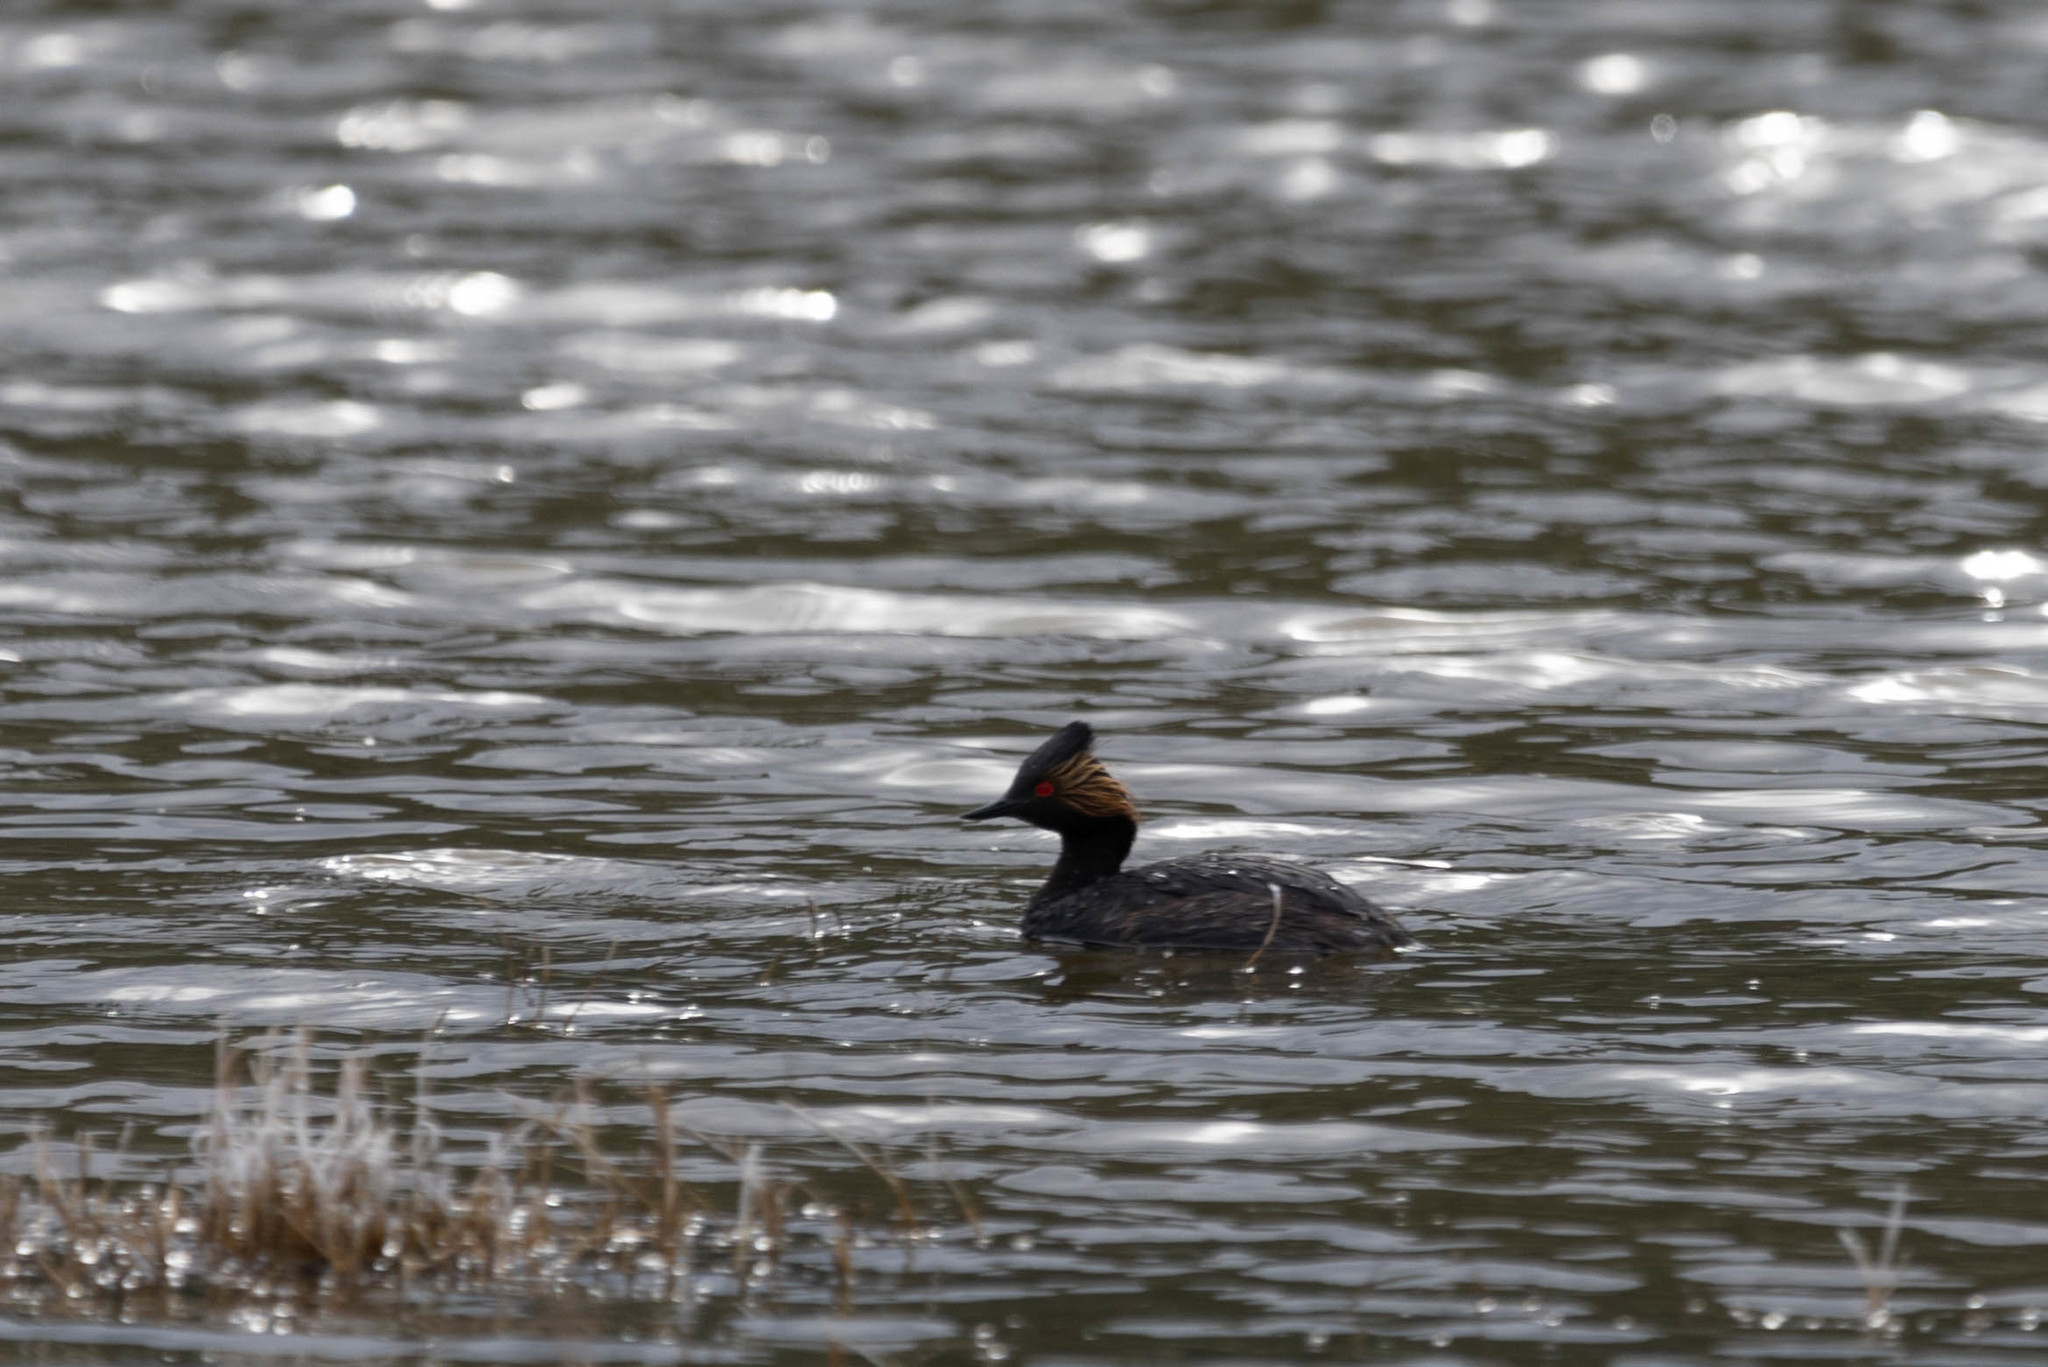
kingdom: Animalia
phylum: Chordata
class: Aves
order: Podicipediformes
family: Podicipedidae
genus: Podiceps
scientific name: Podiceps nigricollis
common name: Black-necked grebe
